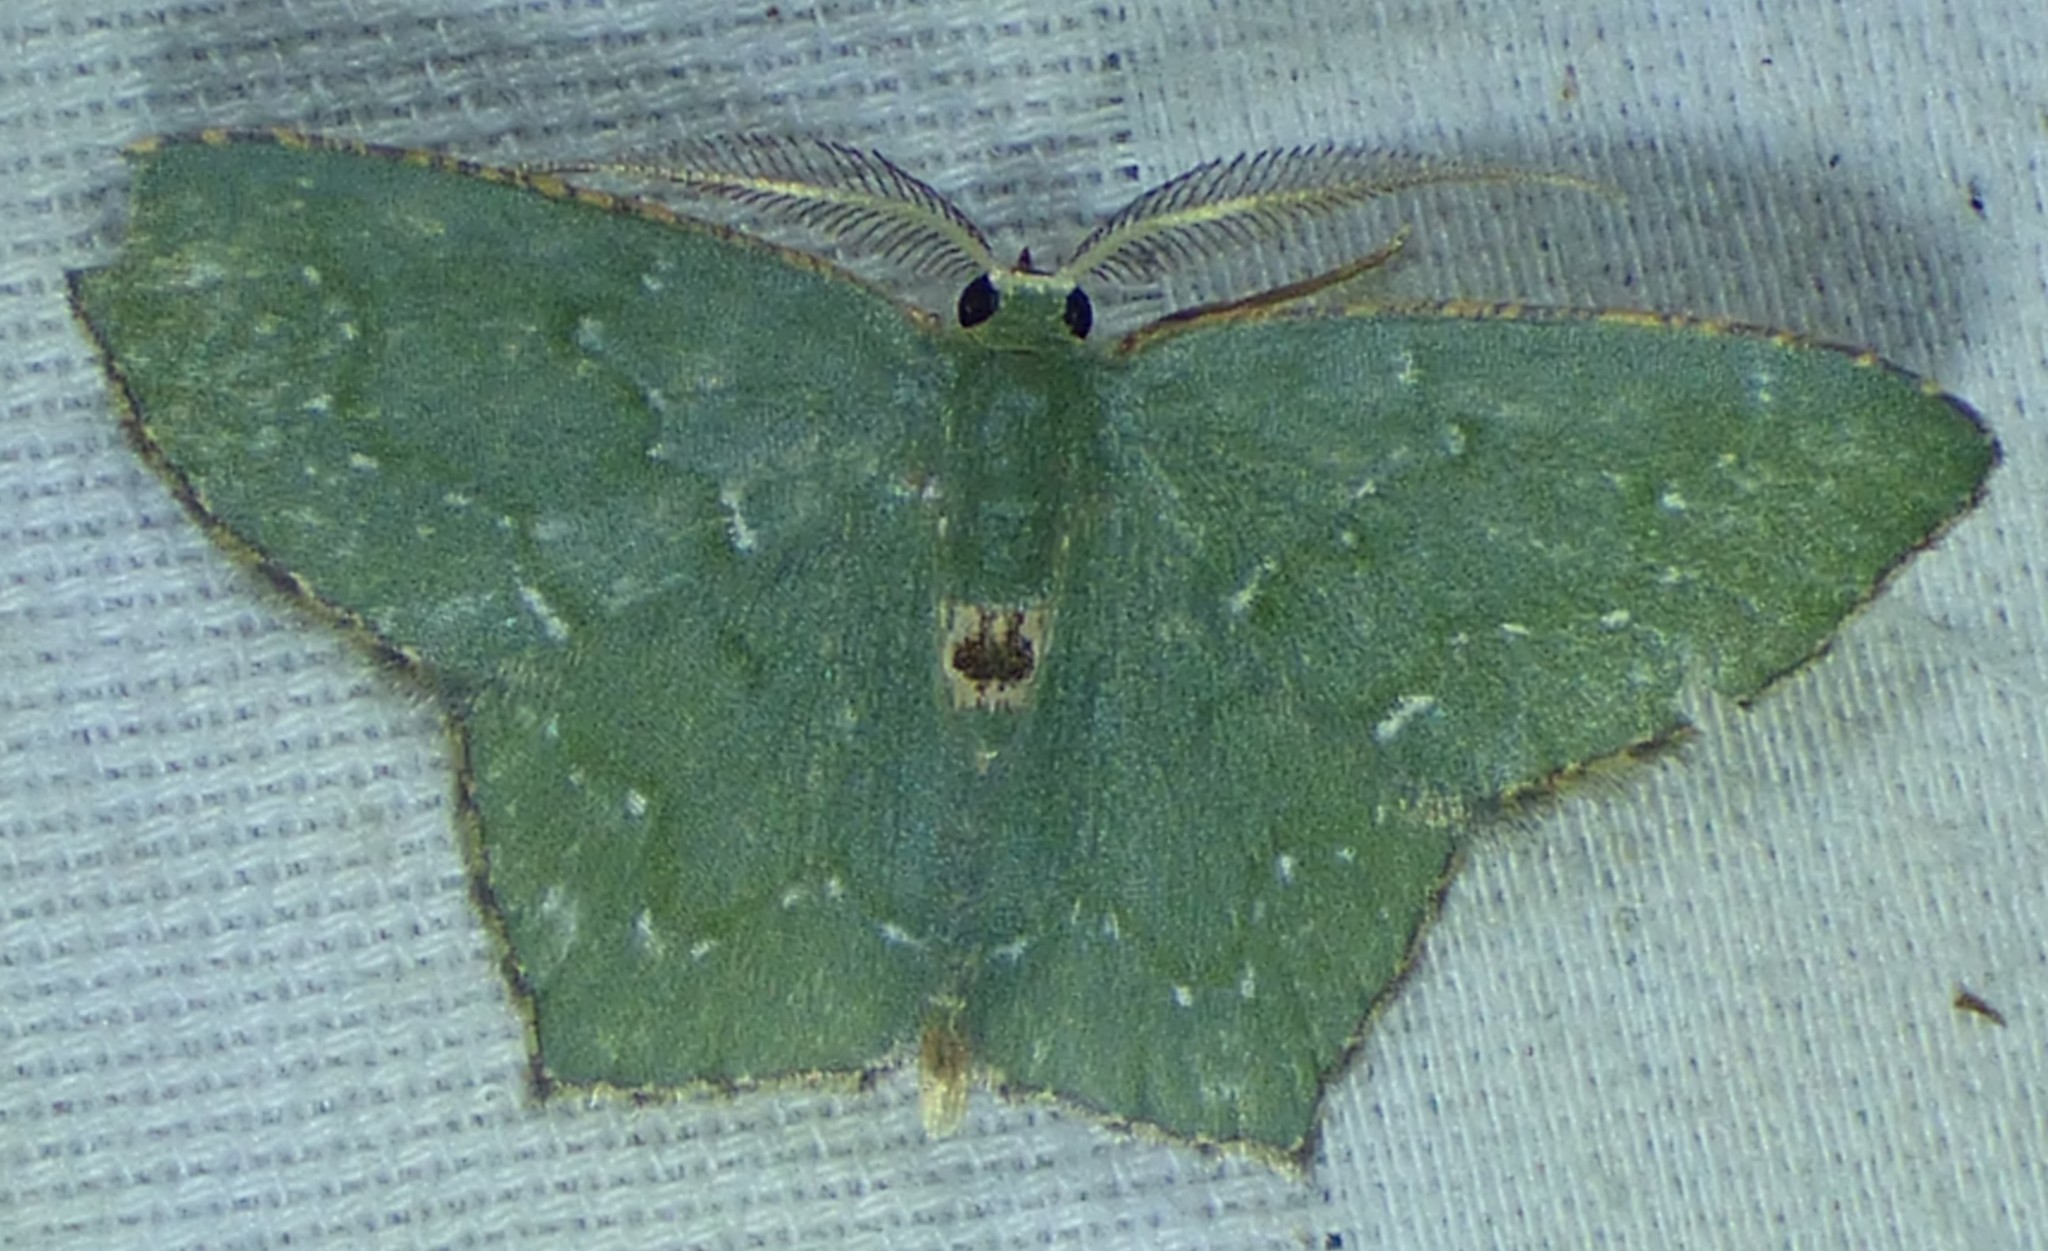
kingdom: Animalia
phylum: Arthropoda
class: Insecta
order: Lepidoptera
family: Geometridae
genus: Chloropteryx
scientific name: Chloropteryx tepperaria
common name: Angle winged emerald moth
